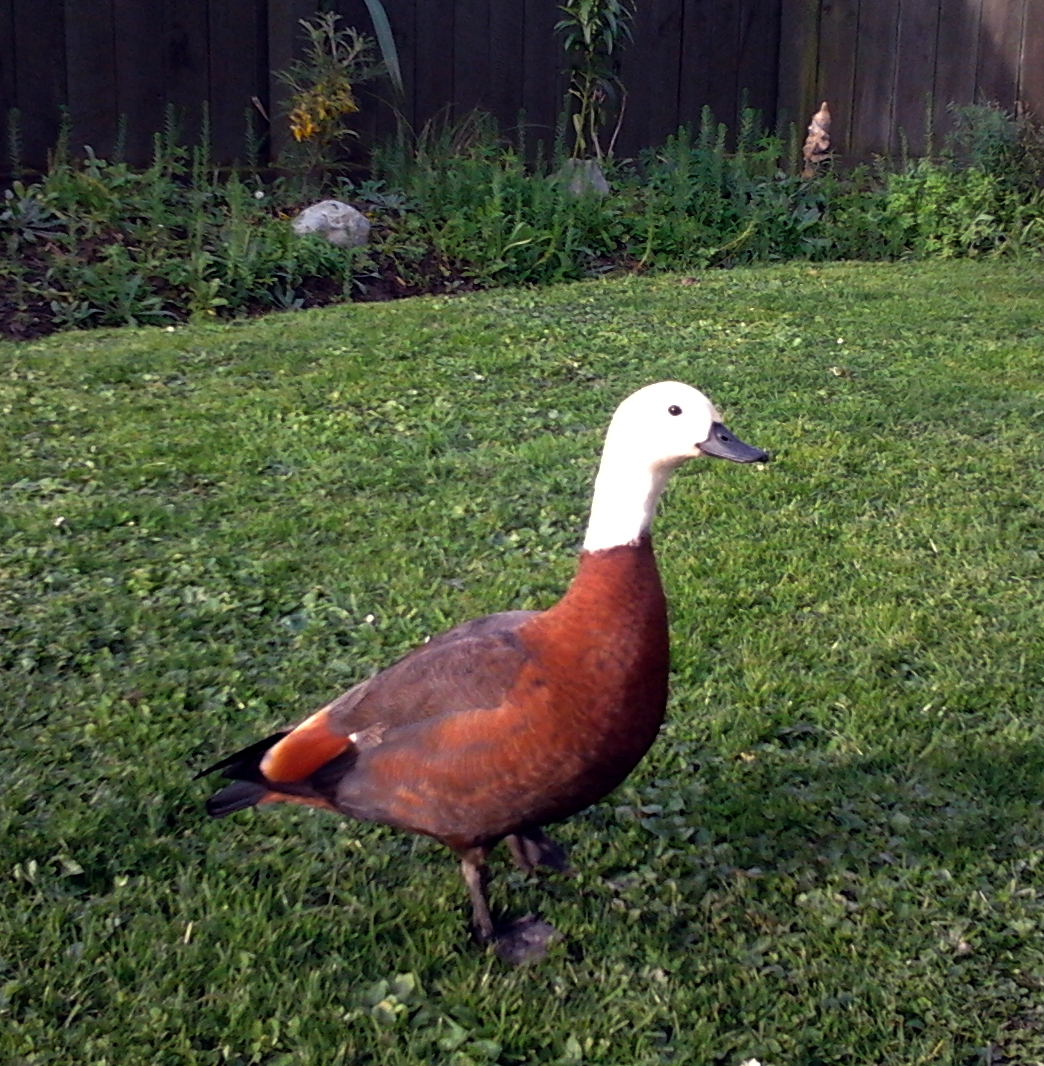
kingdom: Animalia
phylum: Chordata
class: Aves
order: Anseriformes
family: Anatidae
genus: Tadorna
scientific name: Tadorna variegata
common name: Paradise shelduck
